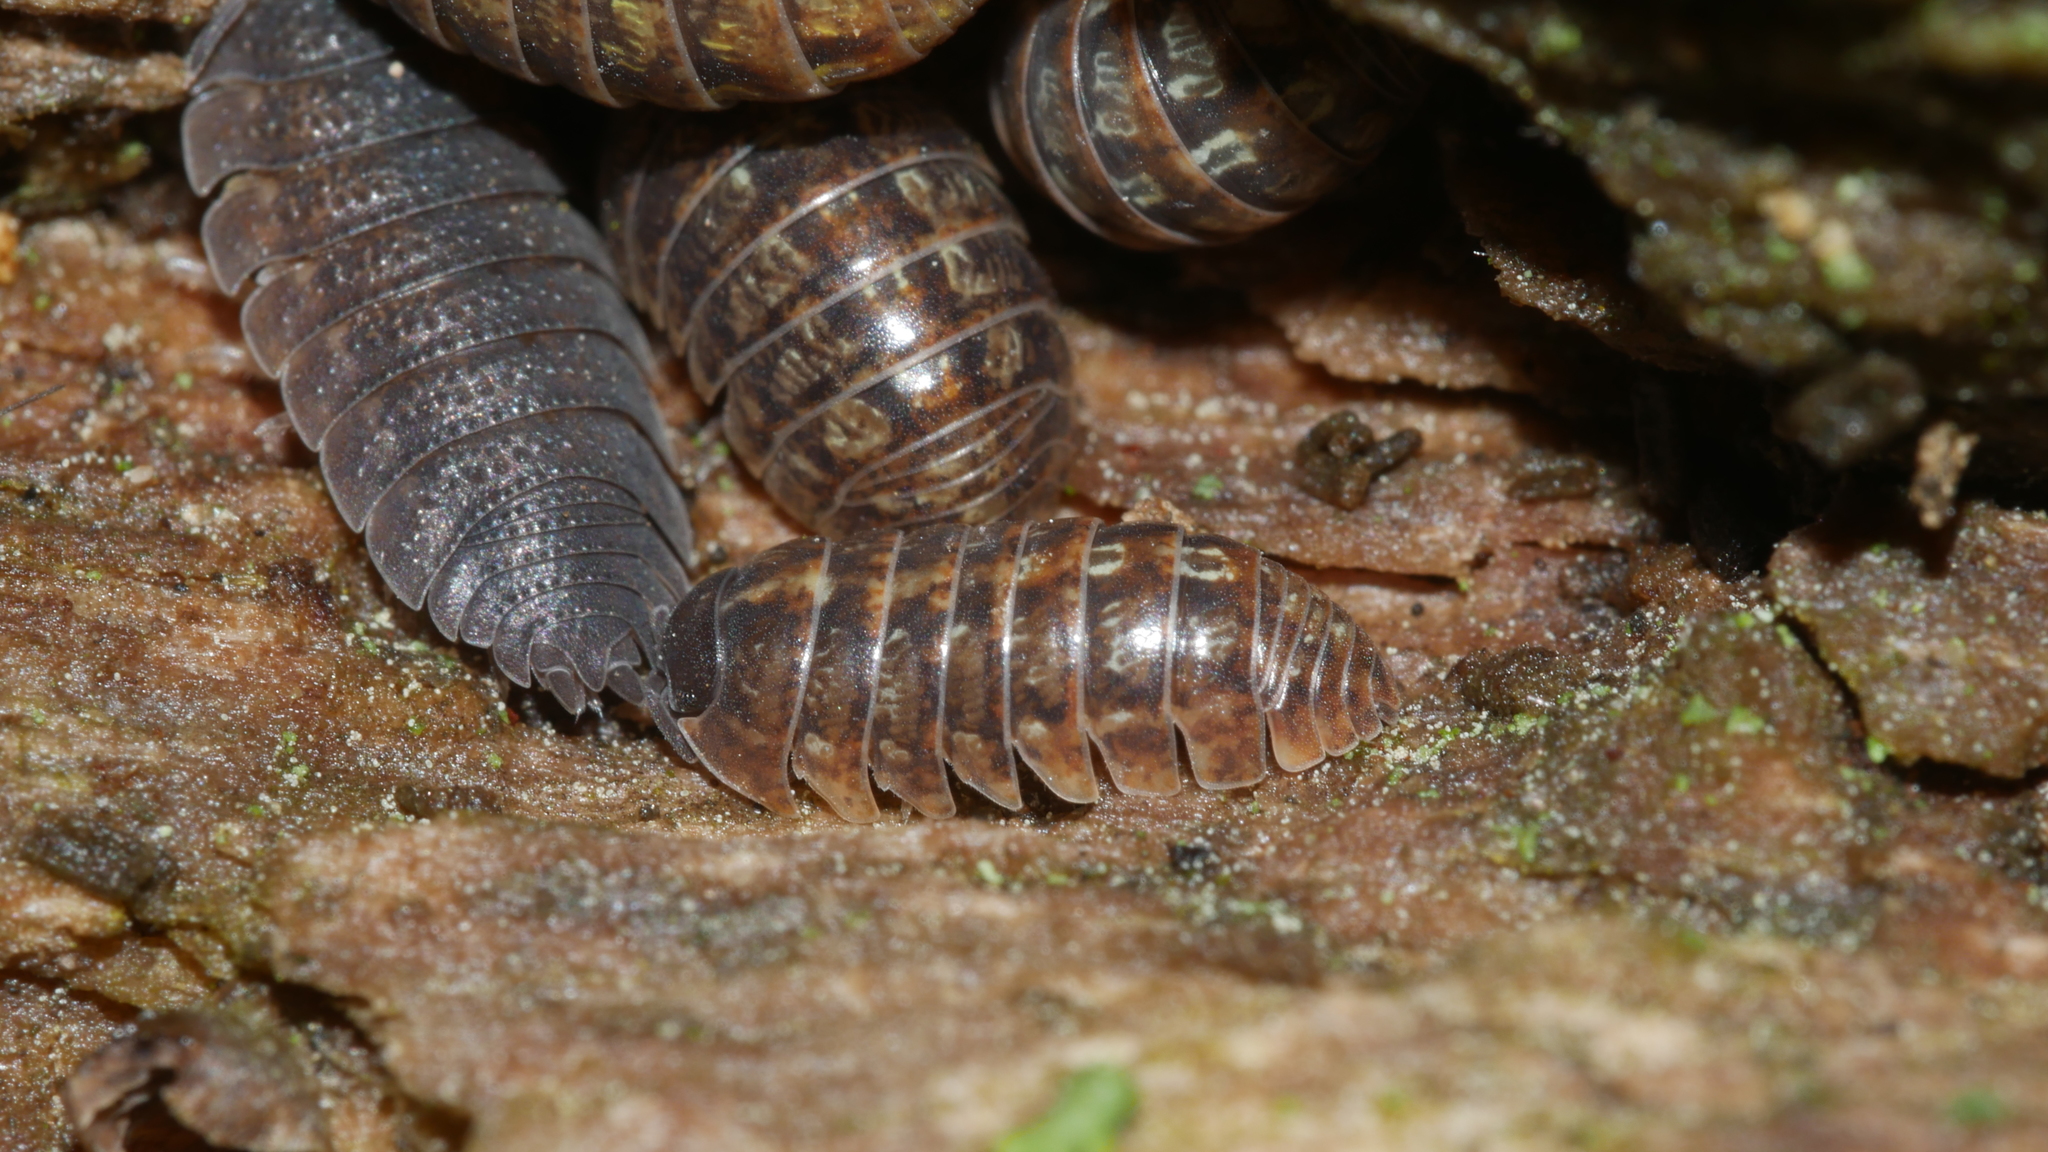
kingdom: Animalia
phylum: Arthropoda
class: Malacostraca
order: Isopoda
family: Armadillidiidae
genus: Armadillidium
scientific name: Armadillidium vulgare
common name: Common pill woodlouse
